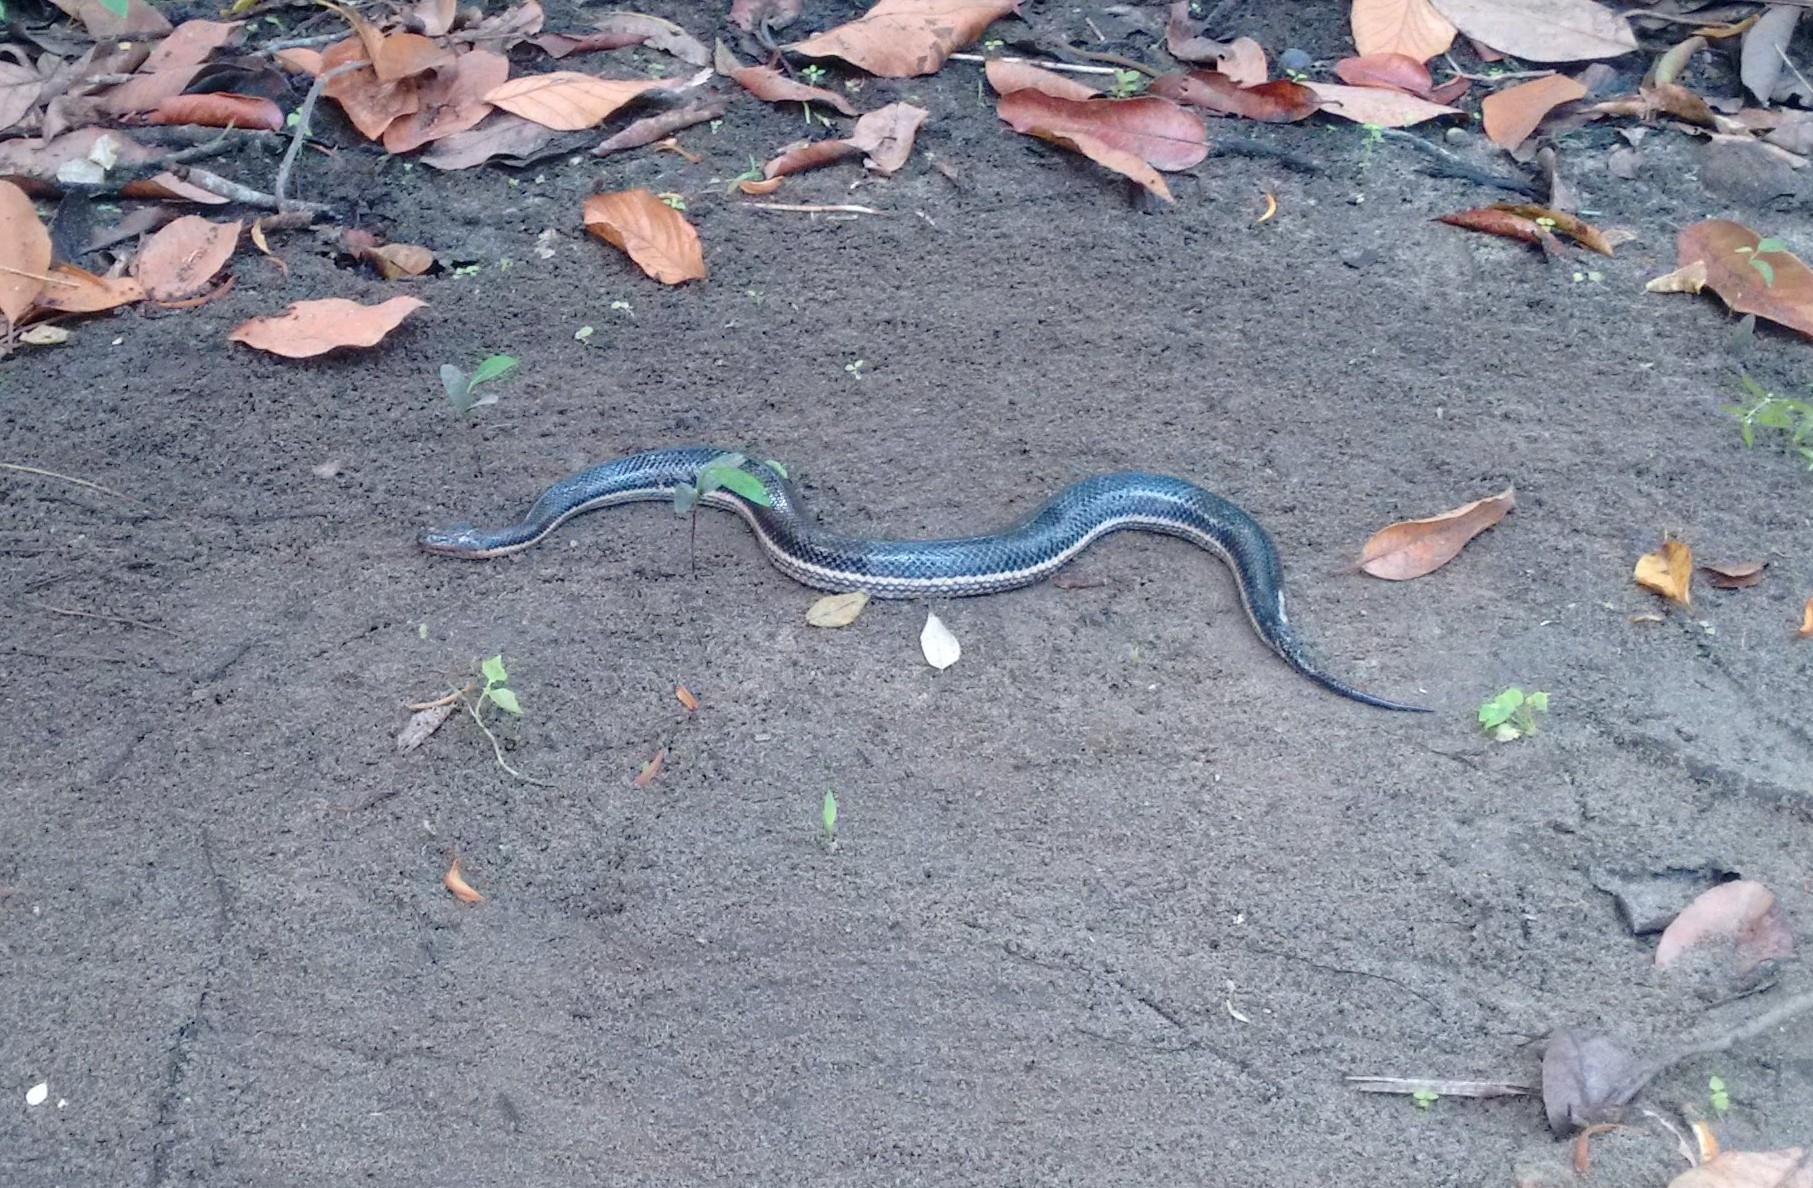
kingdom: Animalia
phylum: Chordata
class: Squamata
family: Homalopsidae
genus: Dieurostus
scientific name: Dieurostus dussumieri
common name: Dussumier's water snake
